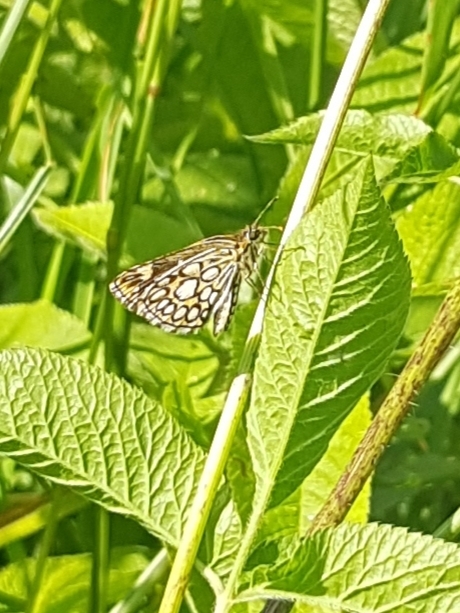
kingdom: Animalia
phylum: Arthropoda
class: Insecta
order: Lepidoptera
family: Hesperiidae
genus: Heteropterus
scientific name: Heteropterus morpheus
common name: Large chequered skipper
